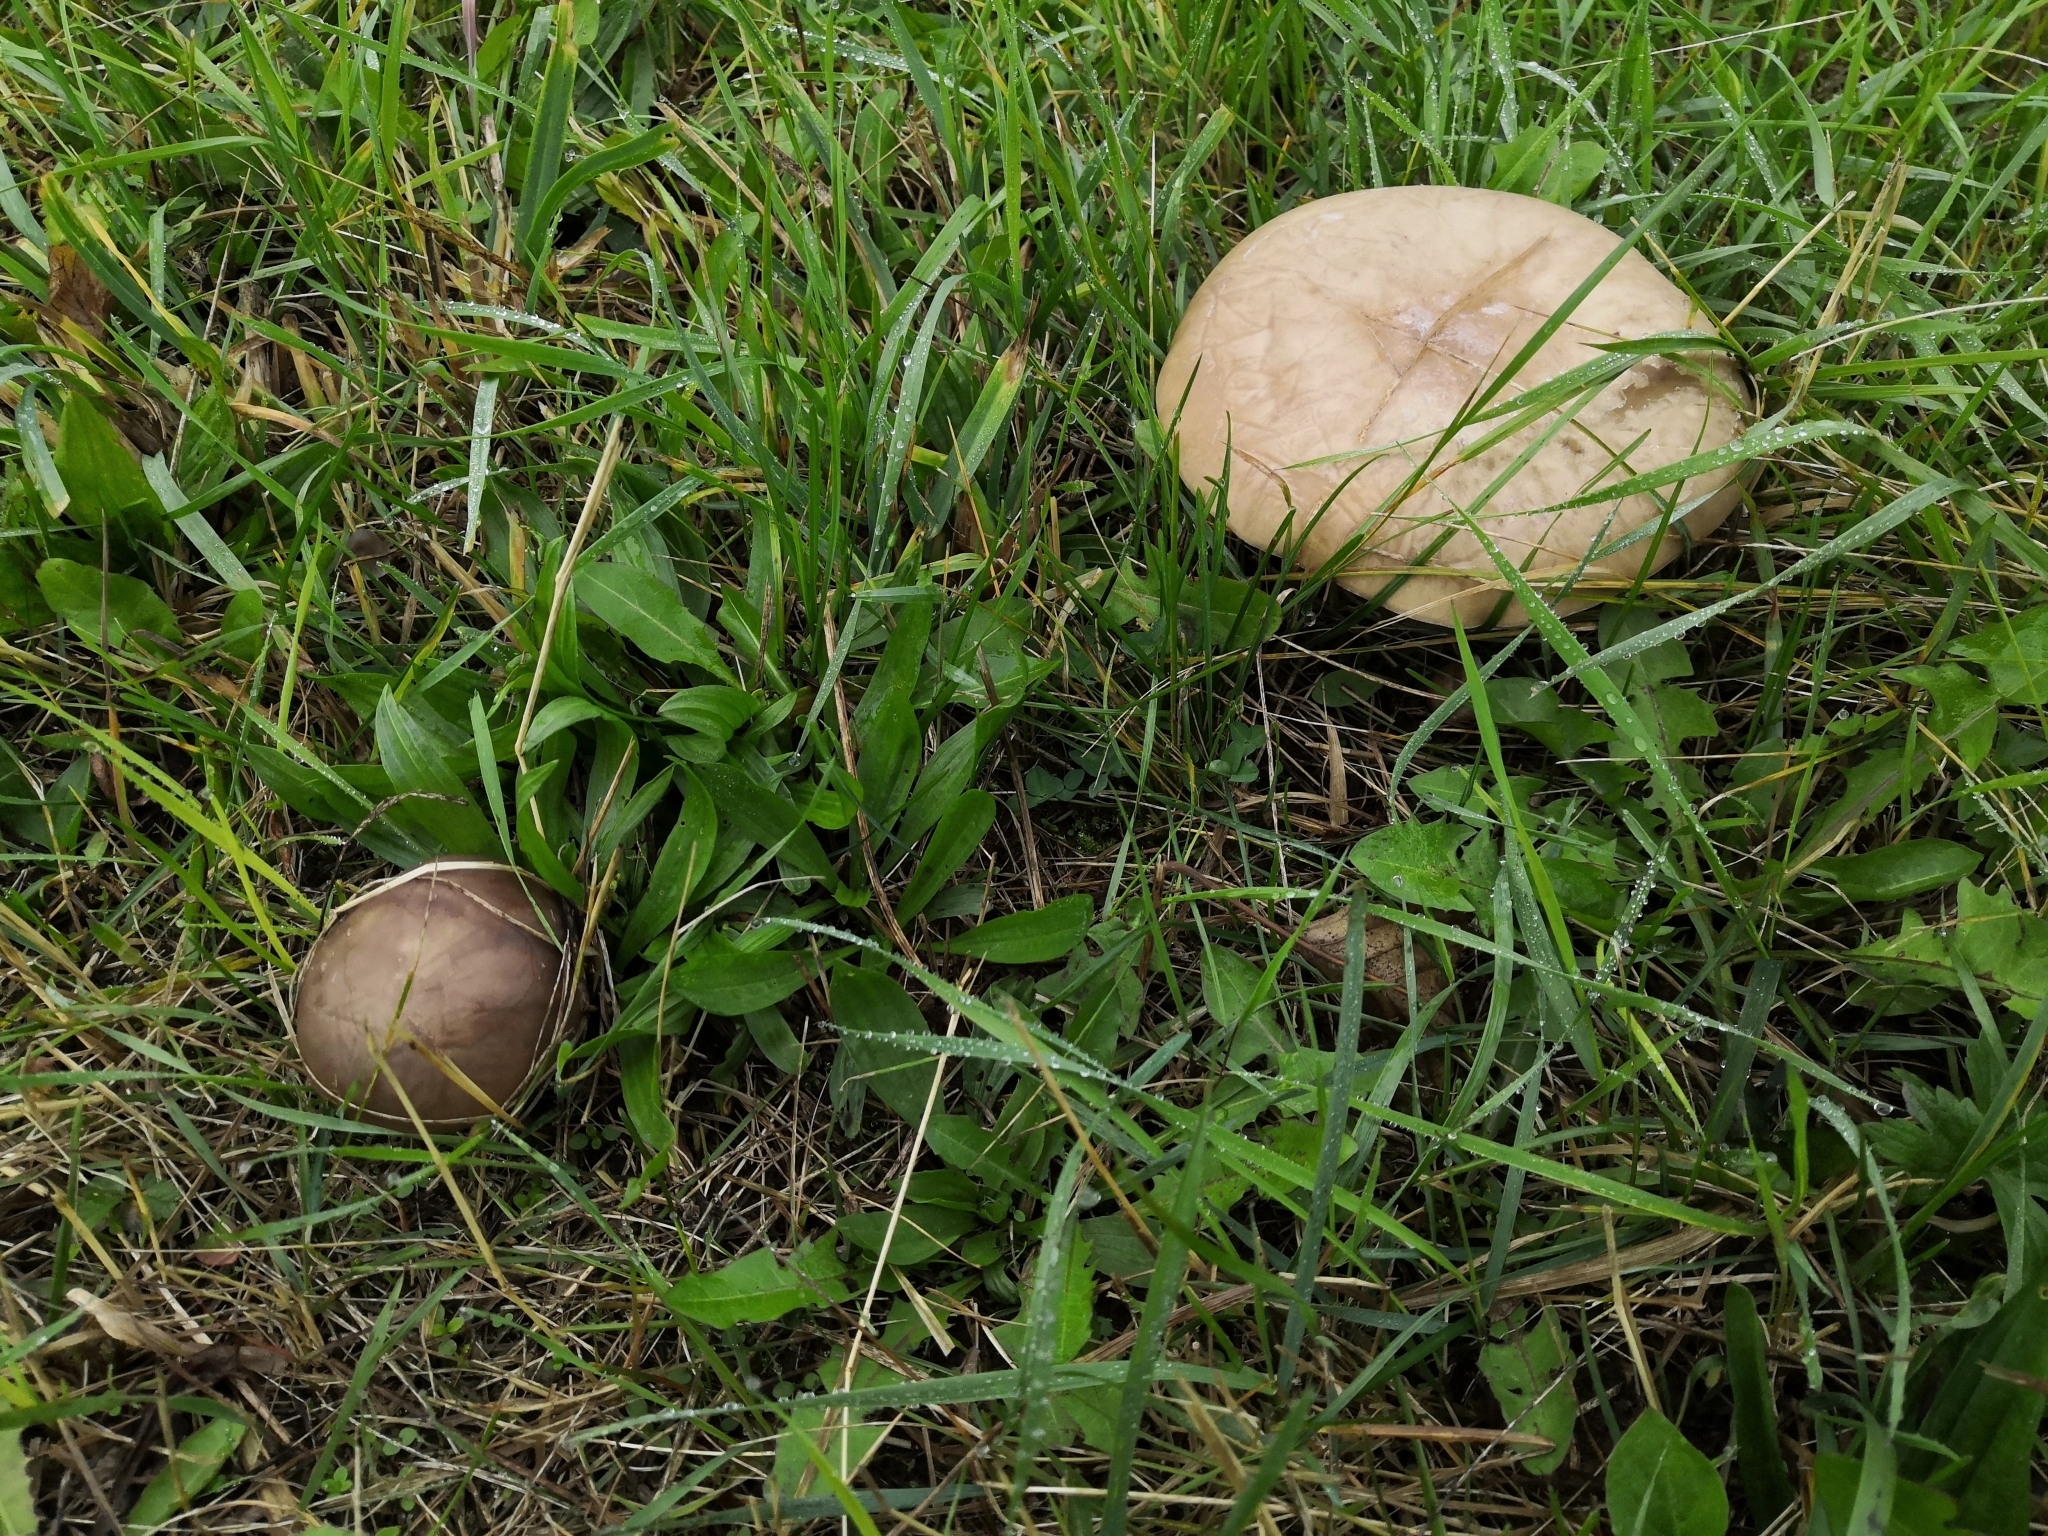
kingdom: Fungi
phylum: Basidiomycota
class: Agaricomycetes
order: Agaricales
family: Omphalotaceae
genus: Collybiopsis
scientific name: Collybiopsis peronata
